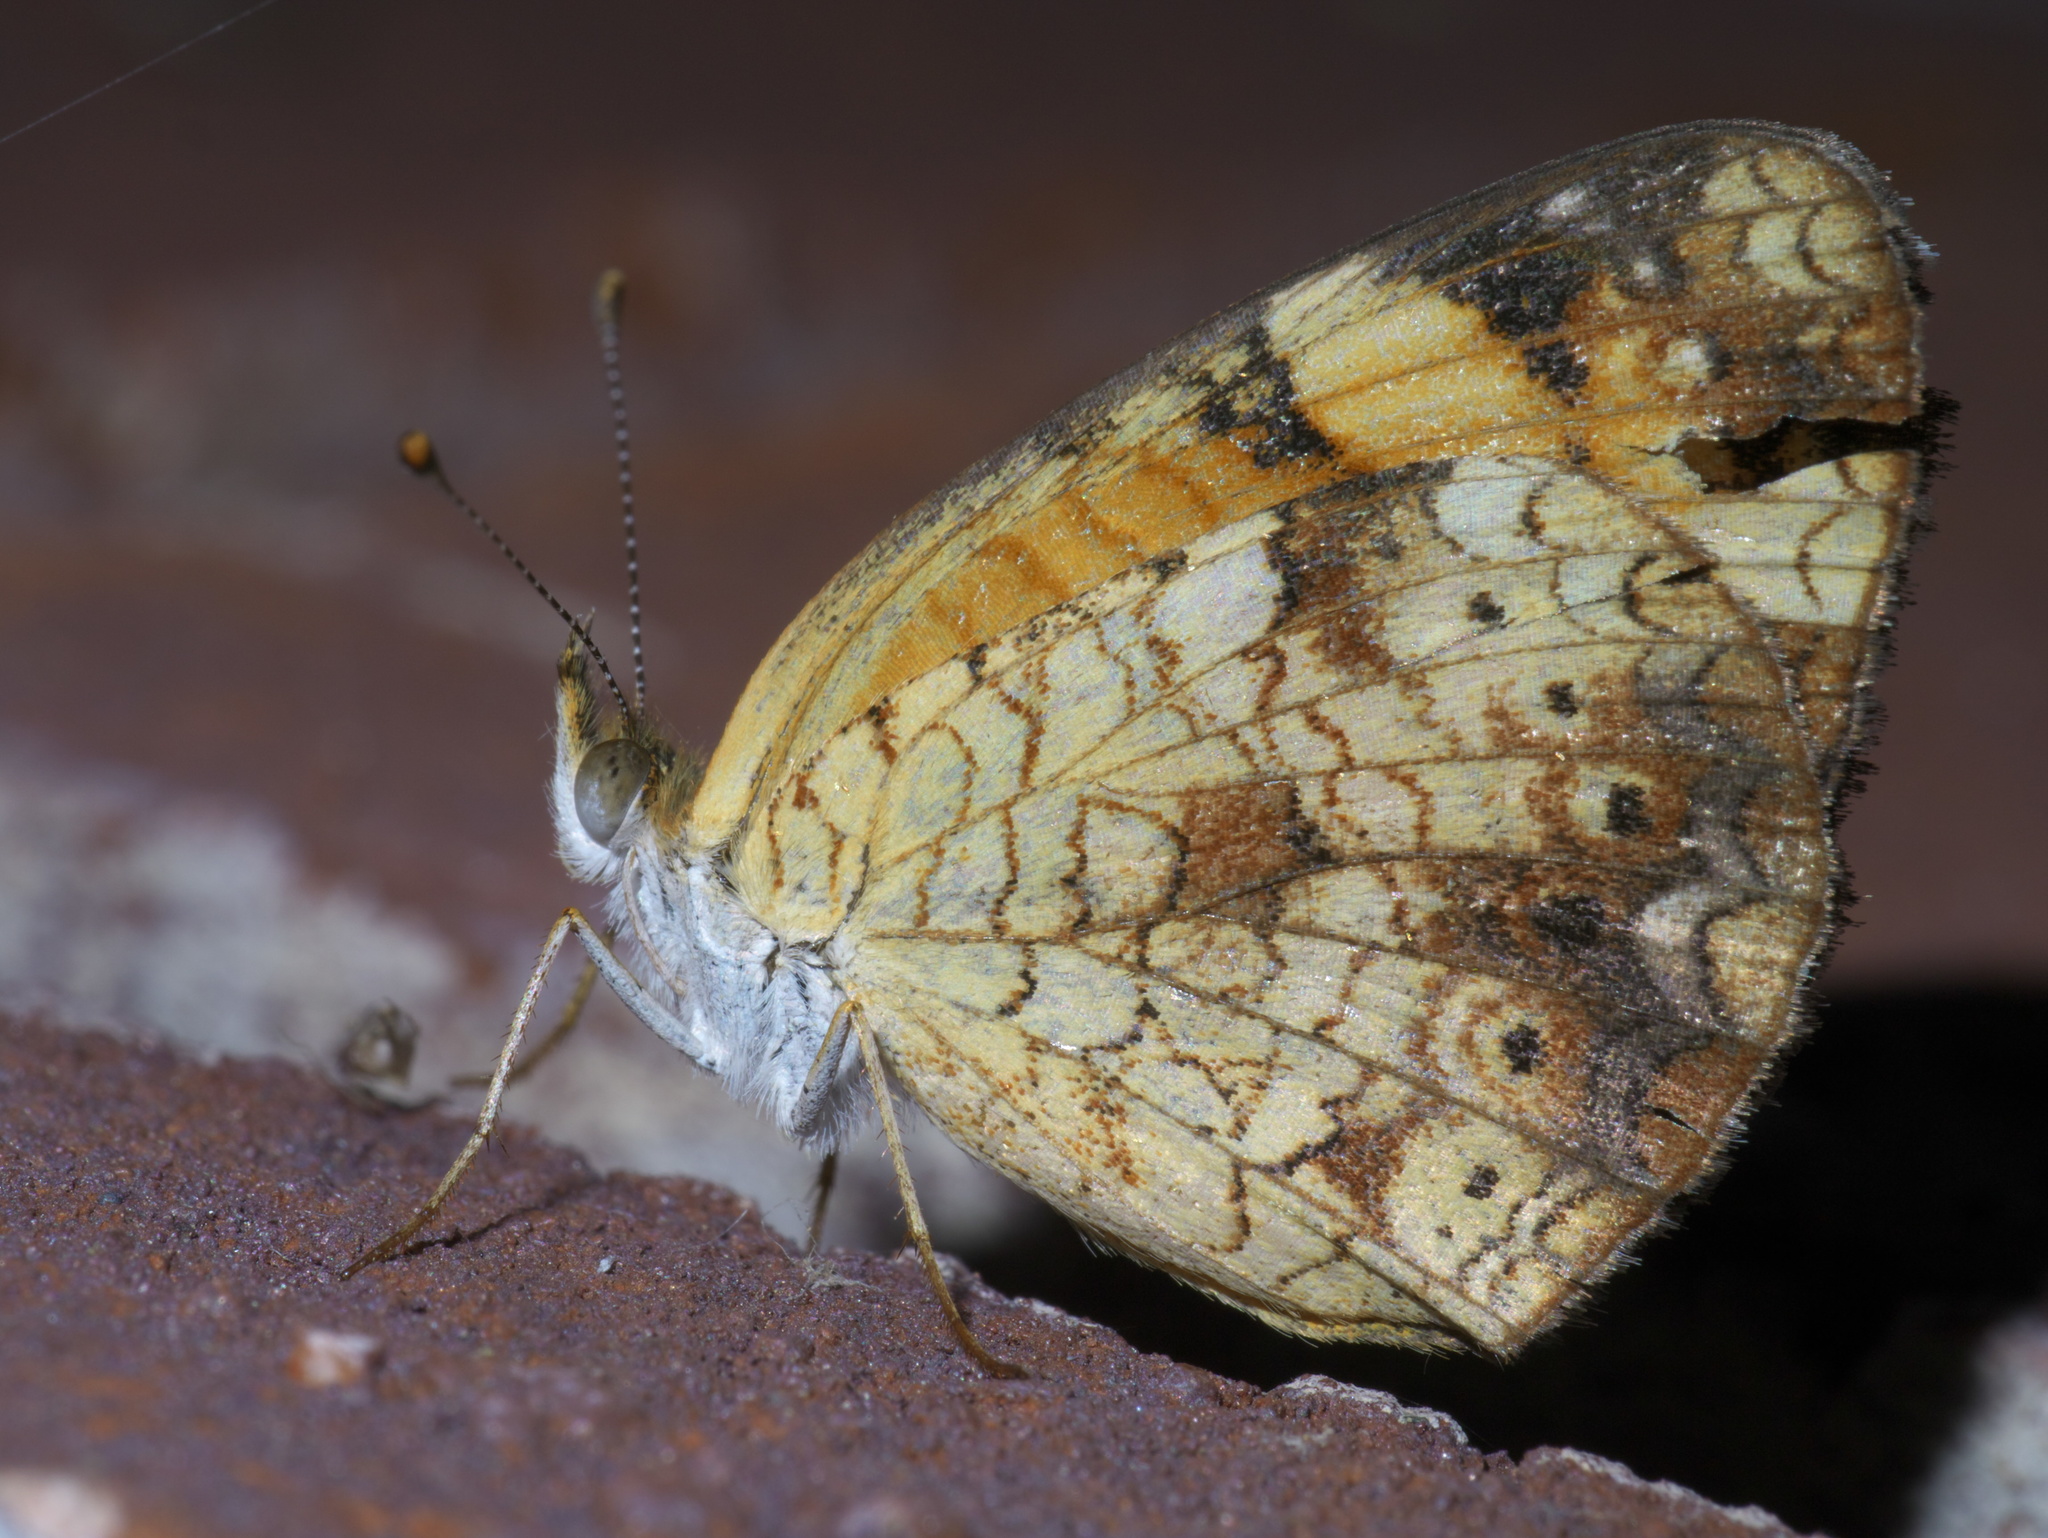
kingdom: Animalia
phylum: Arthropoda
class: Insecta
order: Lepidoptera
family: Nymphalidae
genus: Phyciodes
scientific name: Phyciodes tharos
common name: Pearl crescent
